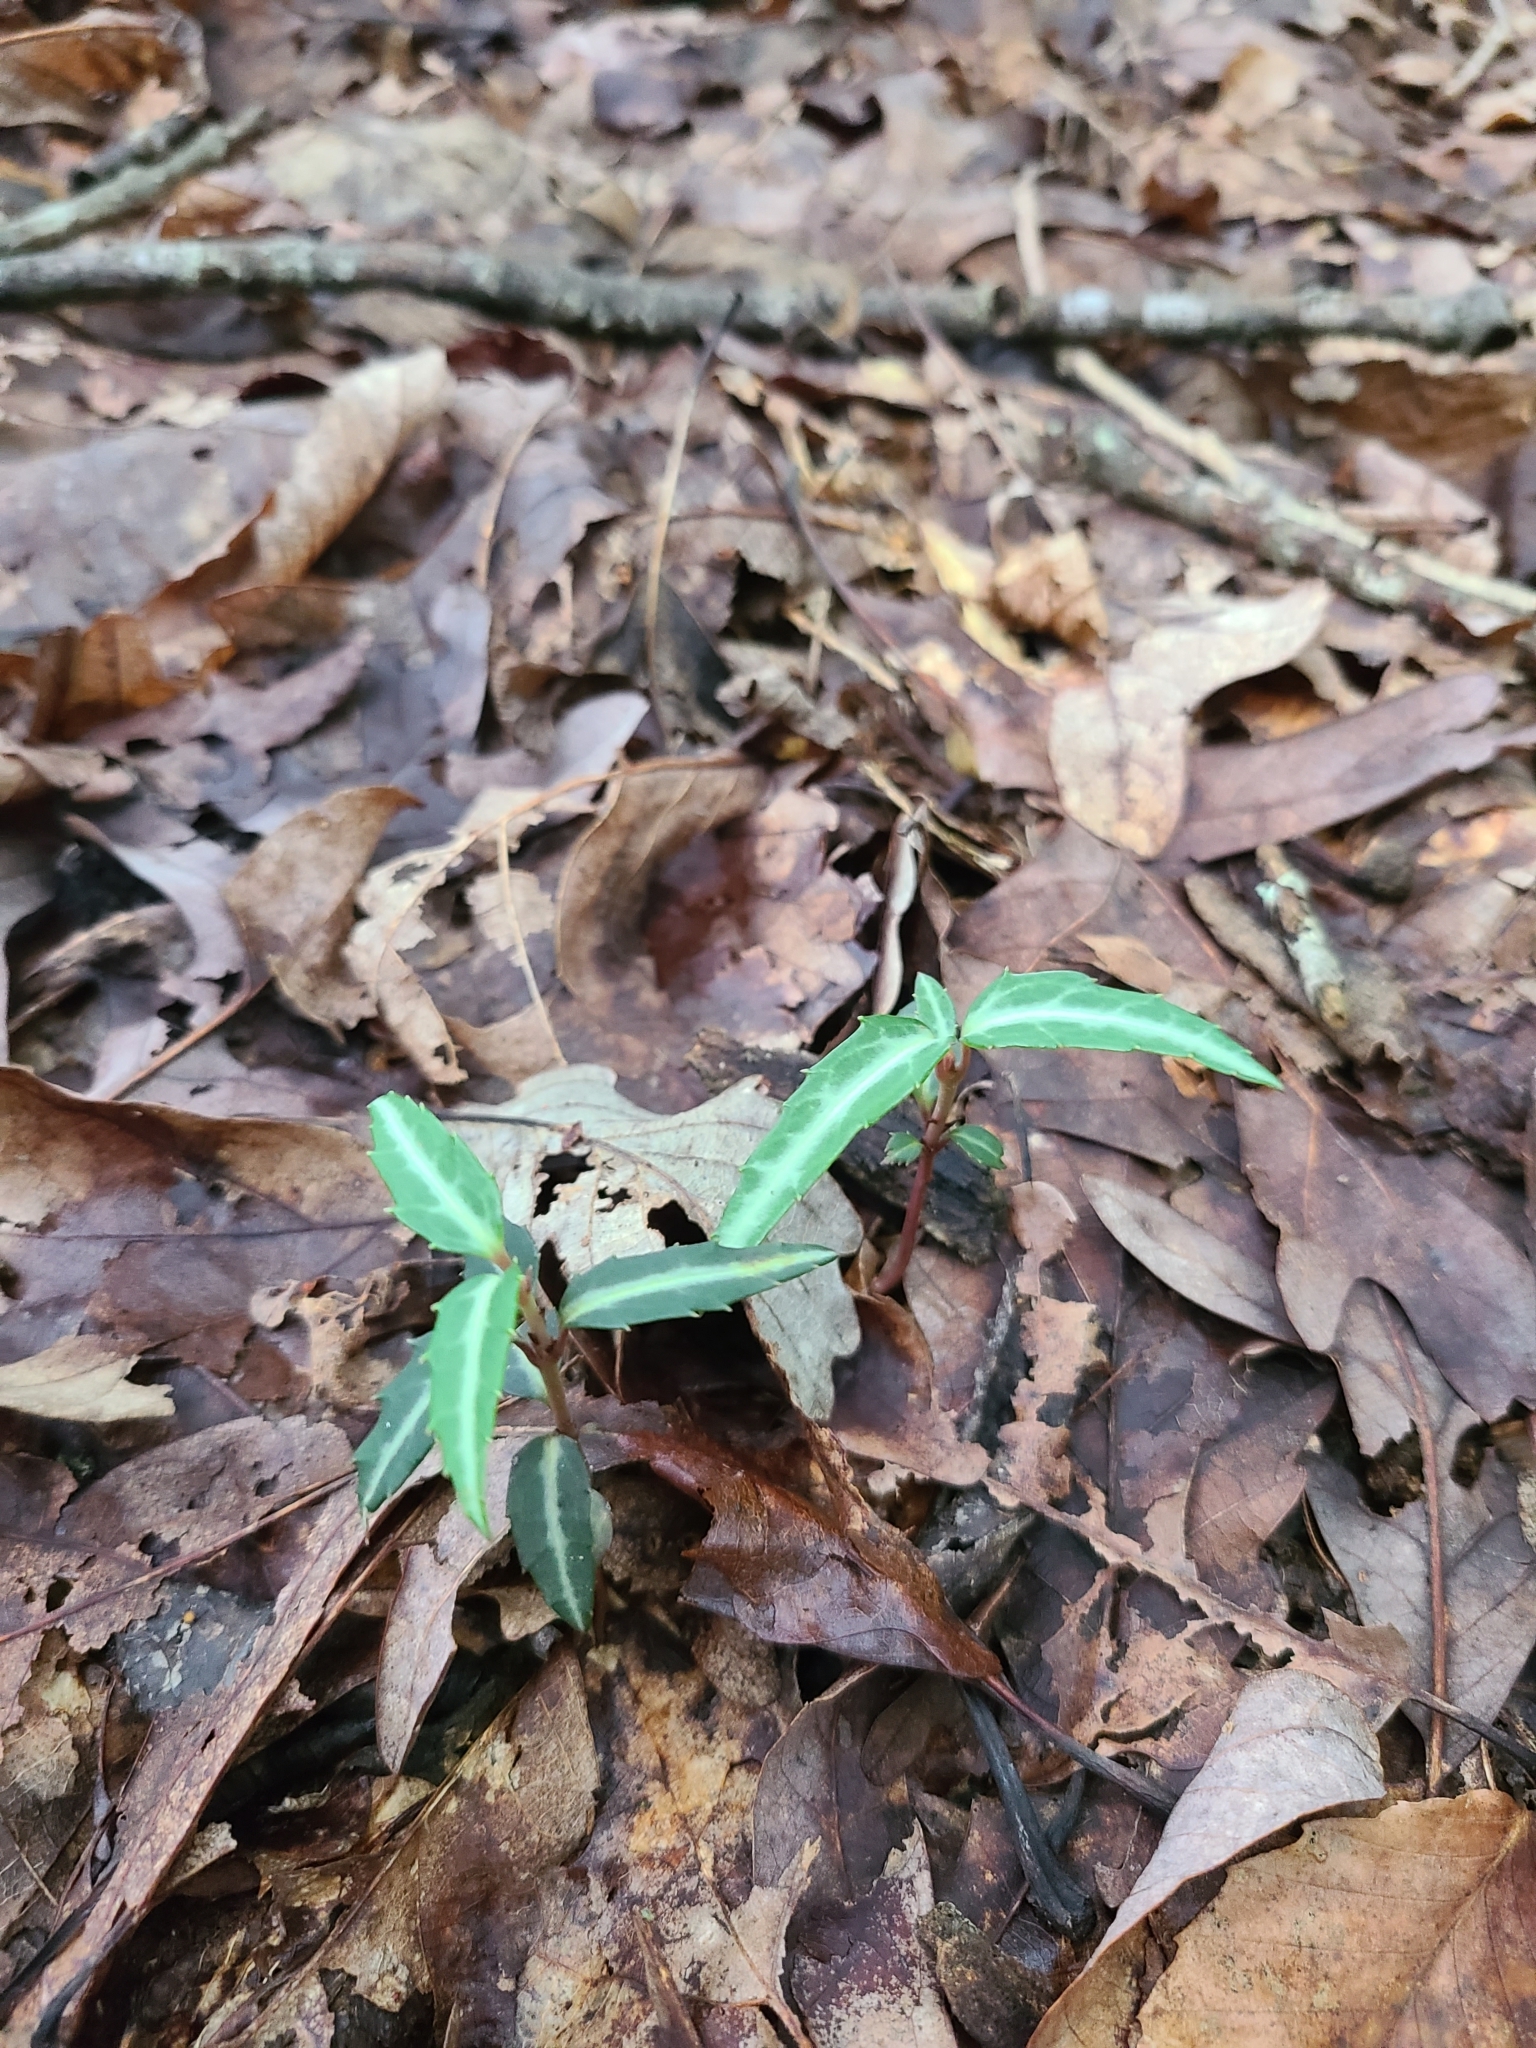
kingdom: Plantae
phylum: Tracheophyta
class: Magnoliopsida
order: Ericales
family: Ericaceae
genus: Chimaphila
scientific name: Chimaphila maculata
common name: Spotted pipsissewa
